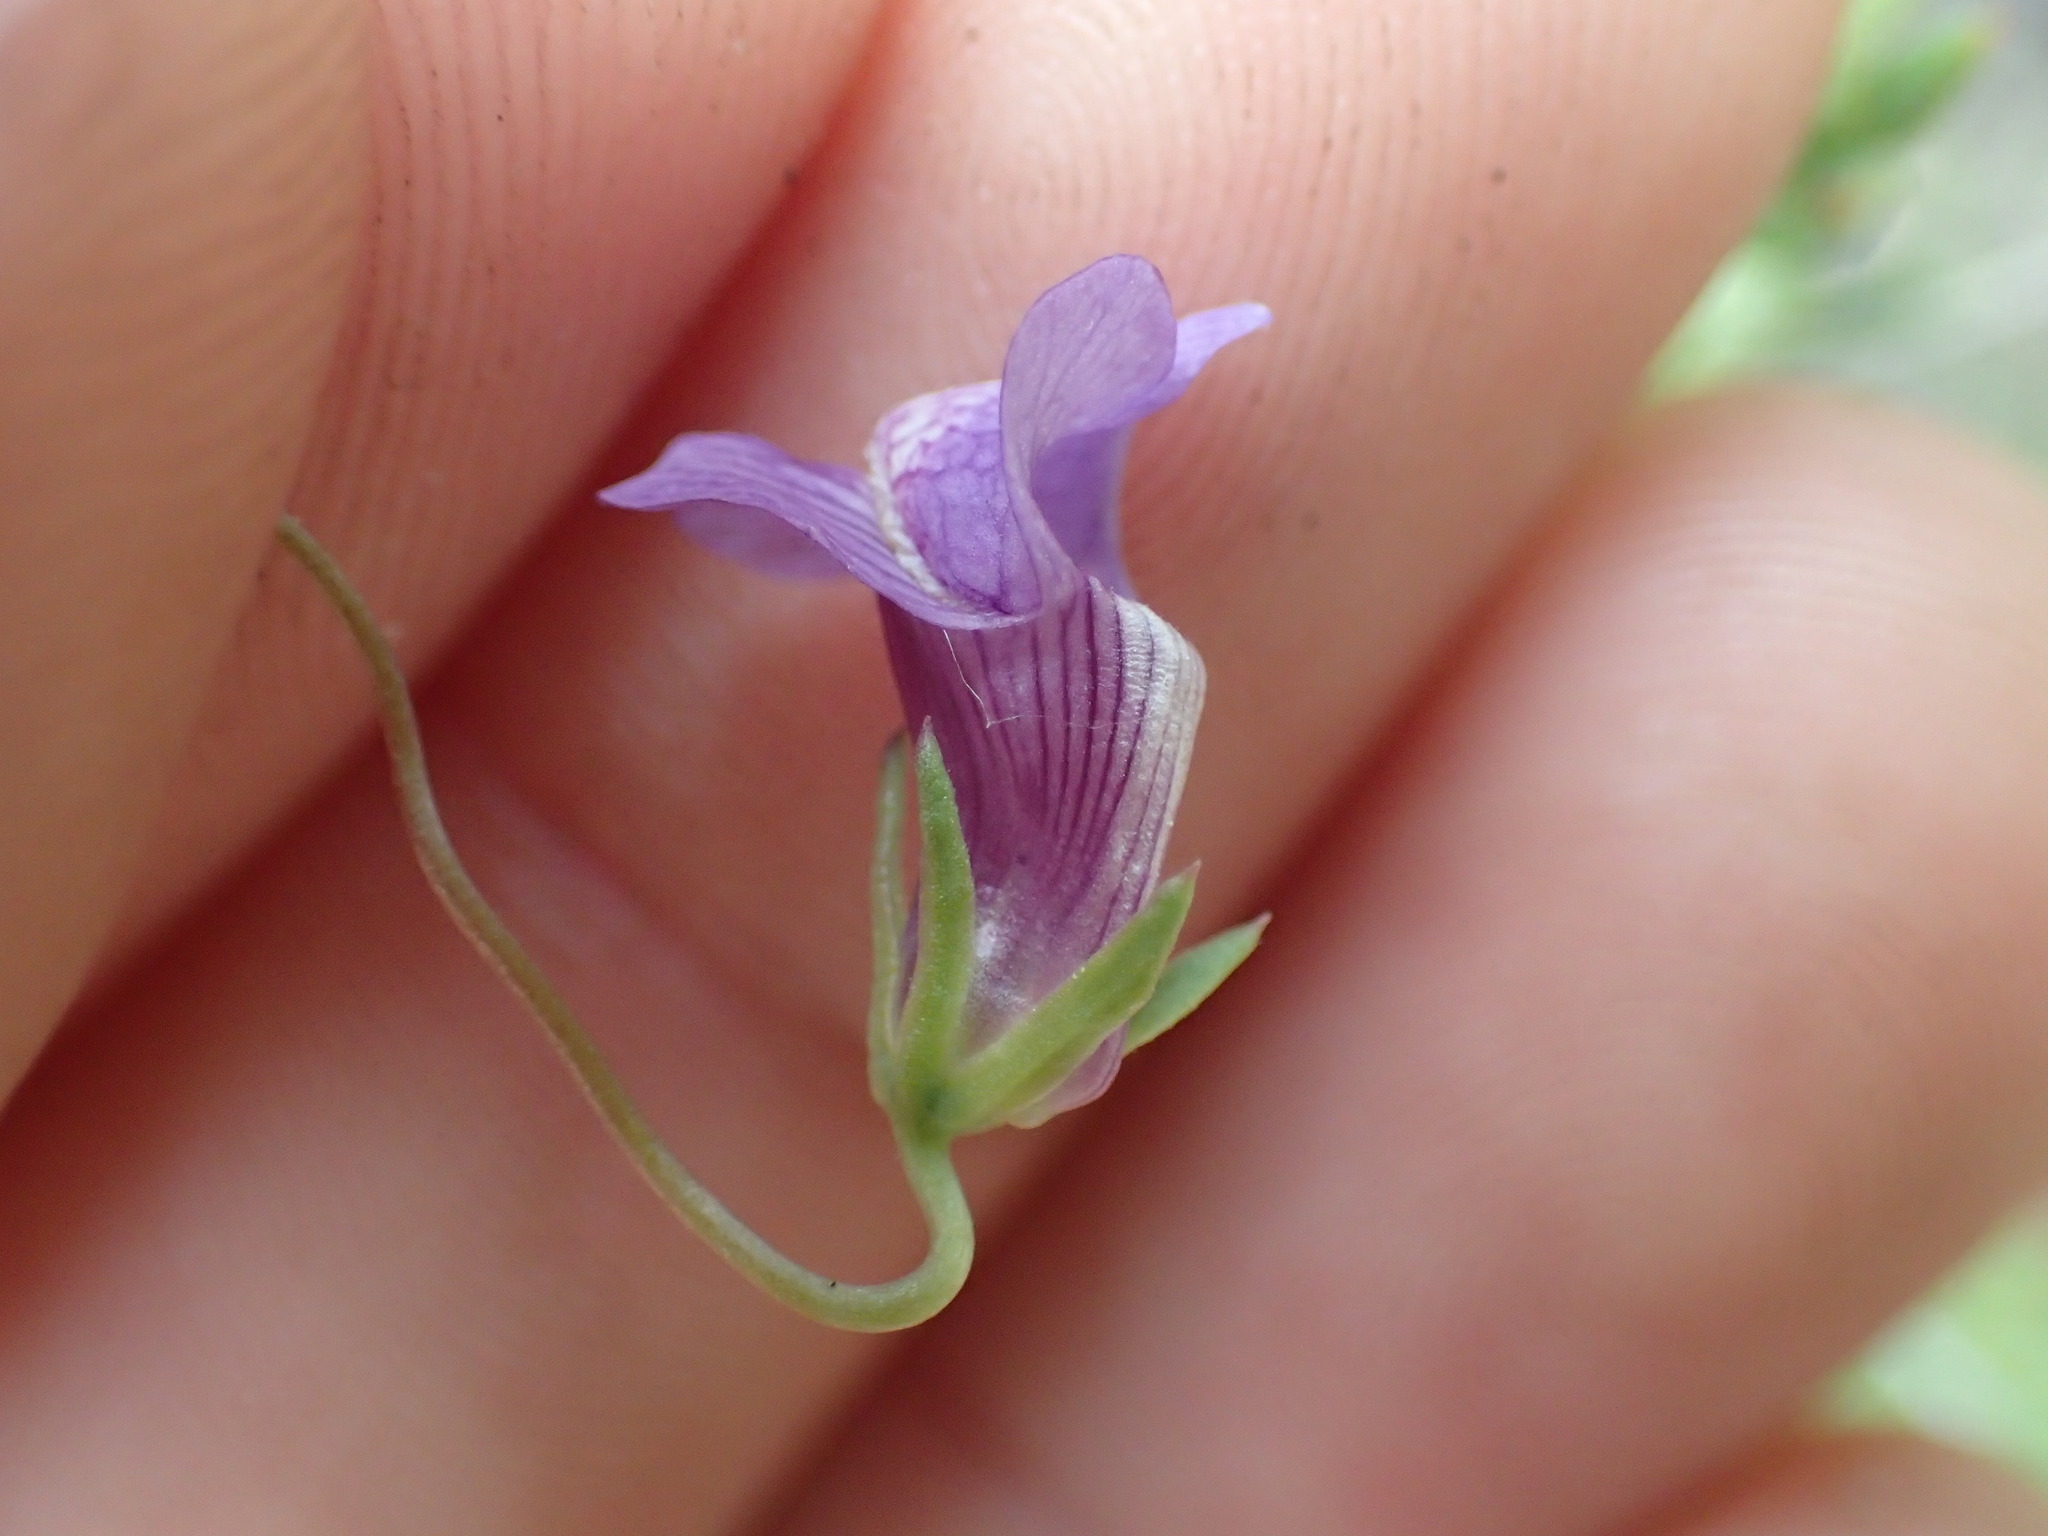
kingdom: Plantae
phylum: Tracheophyta
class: Magnoliopsida
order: Lamiales
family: Plantaginaceae
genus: Neogaerrhinum
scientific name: Neogaerrhinum strictum
